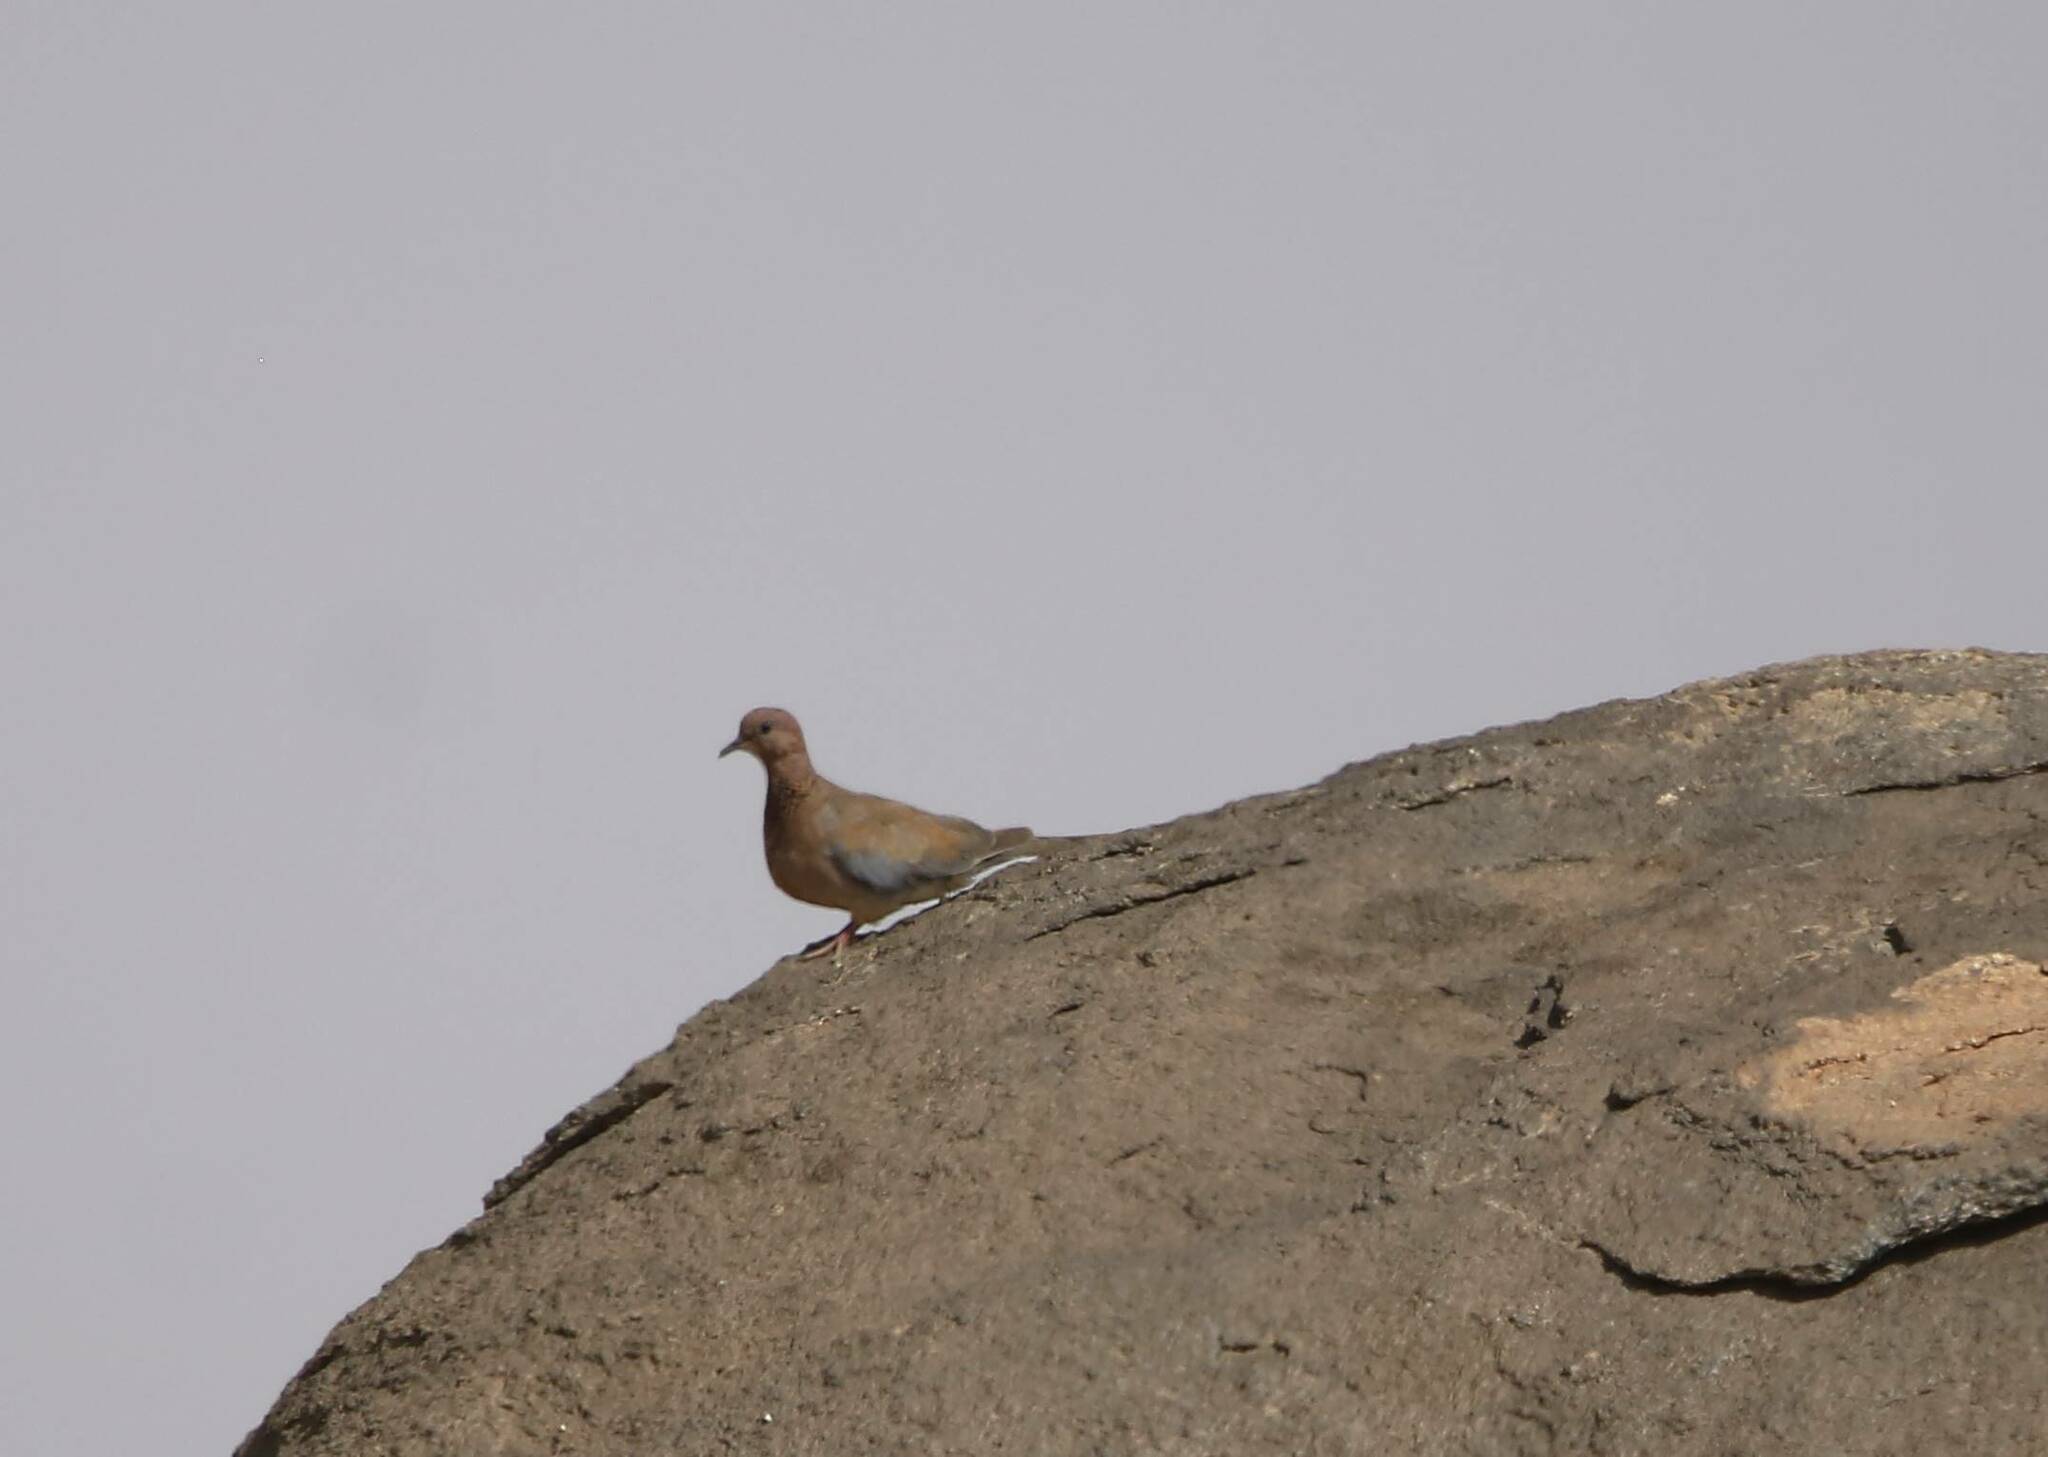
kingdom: Animalia
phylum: Chordata
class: Aves
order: Columbiformes
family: Columbidae
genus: Spilopelia
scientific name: Spilopelia senegalensis
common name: Laughing dove
